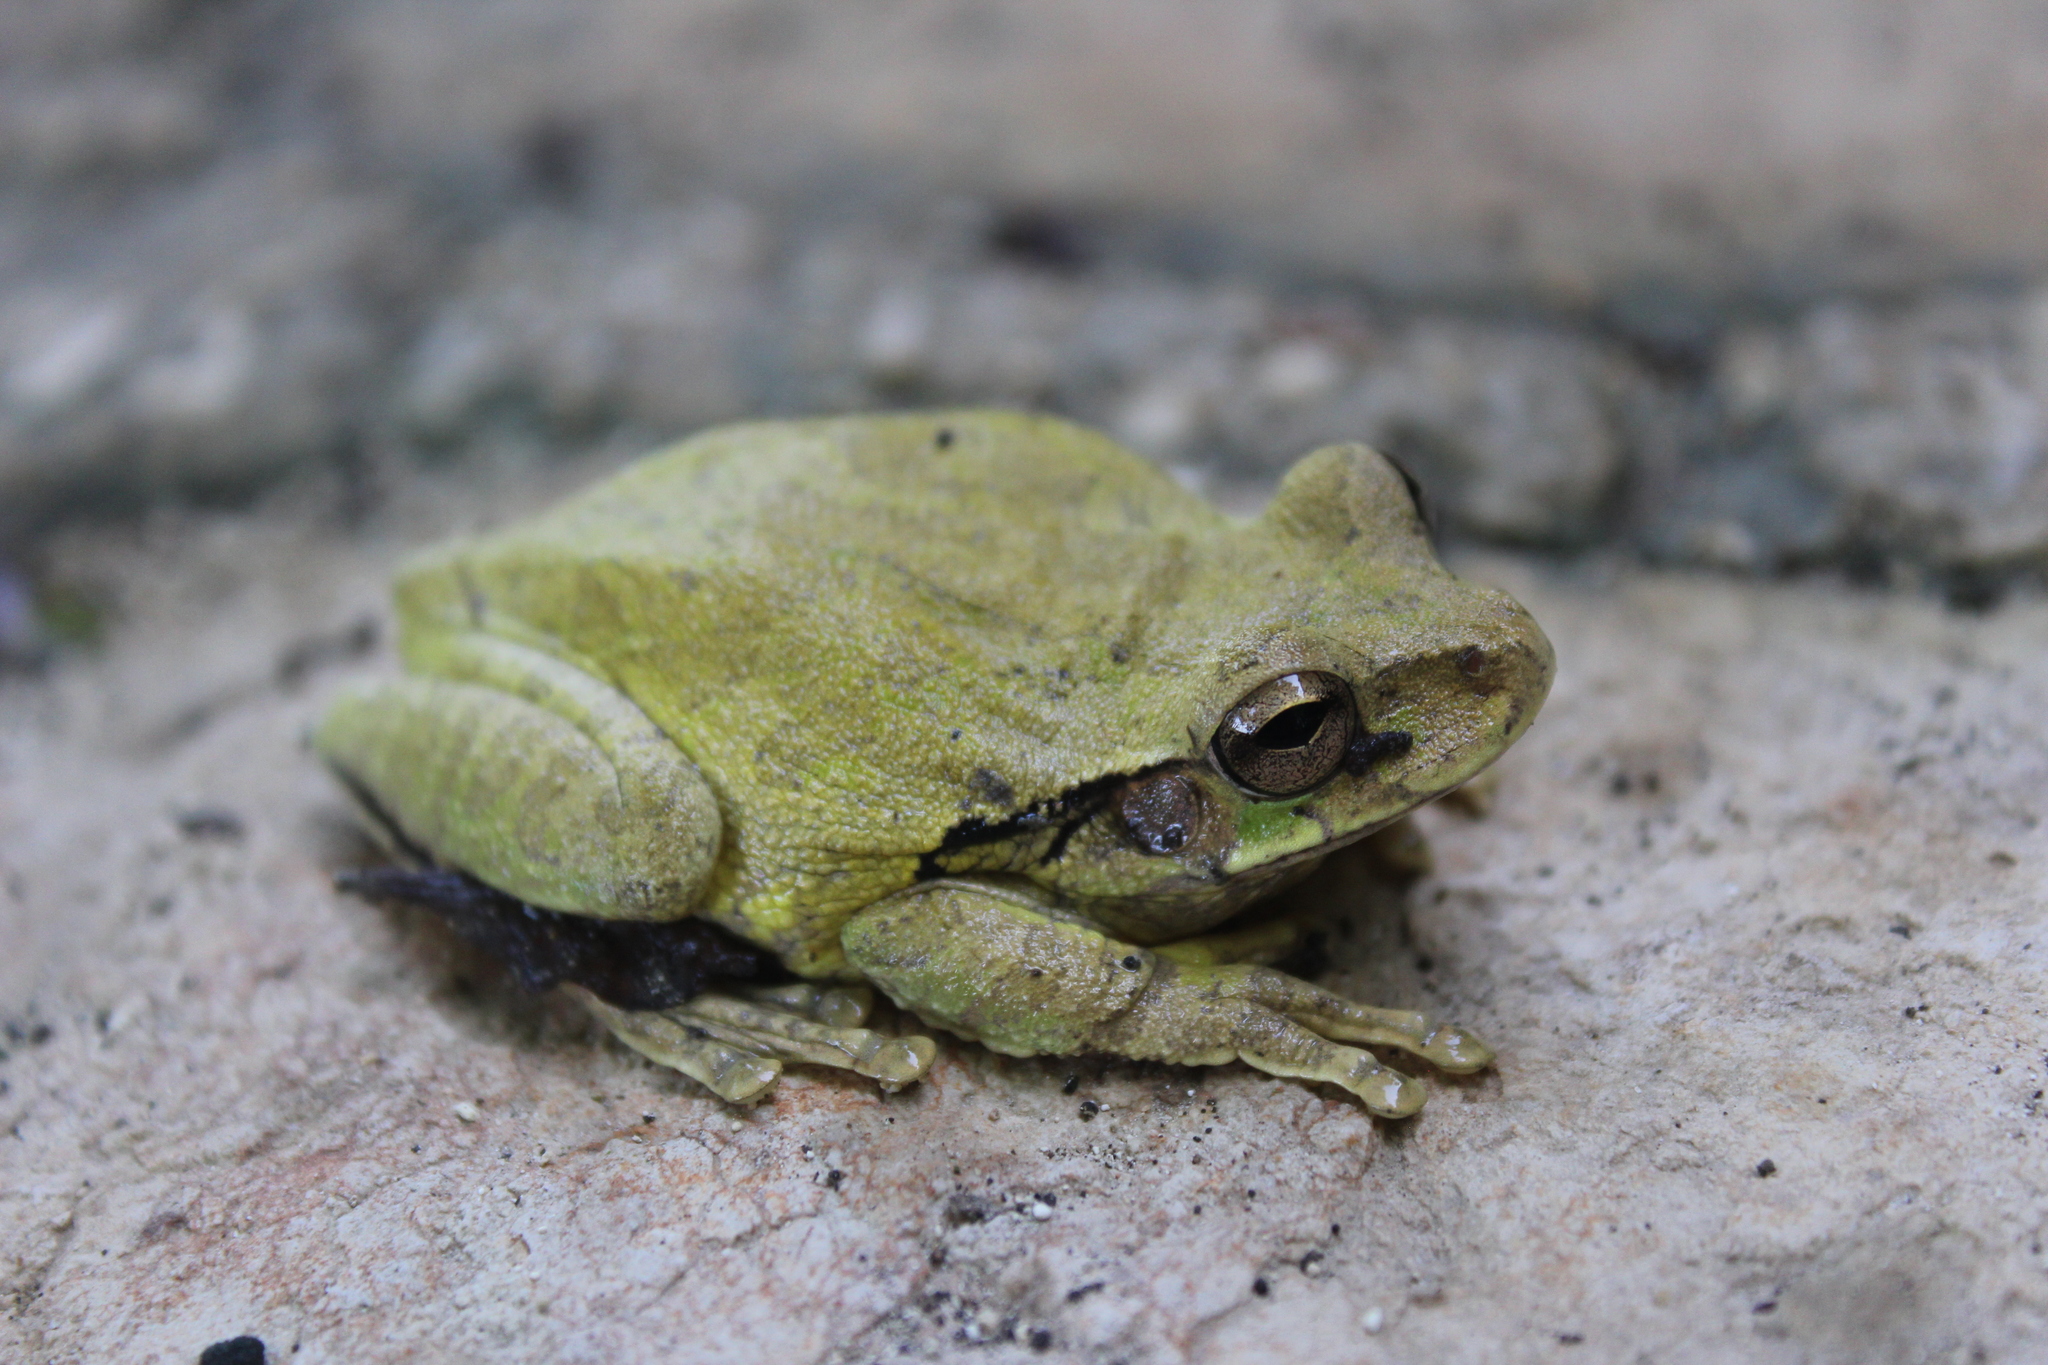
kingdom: Animalia
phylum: Chordata
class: Amphibia
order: Anura
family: Hylidae
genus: Smilisca
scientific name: Smilisca baudinii
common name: Mexican smilisca
